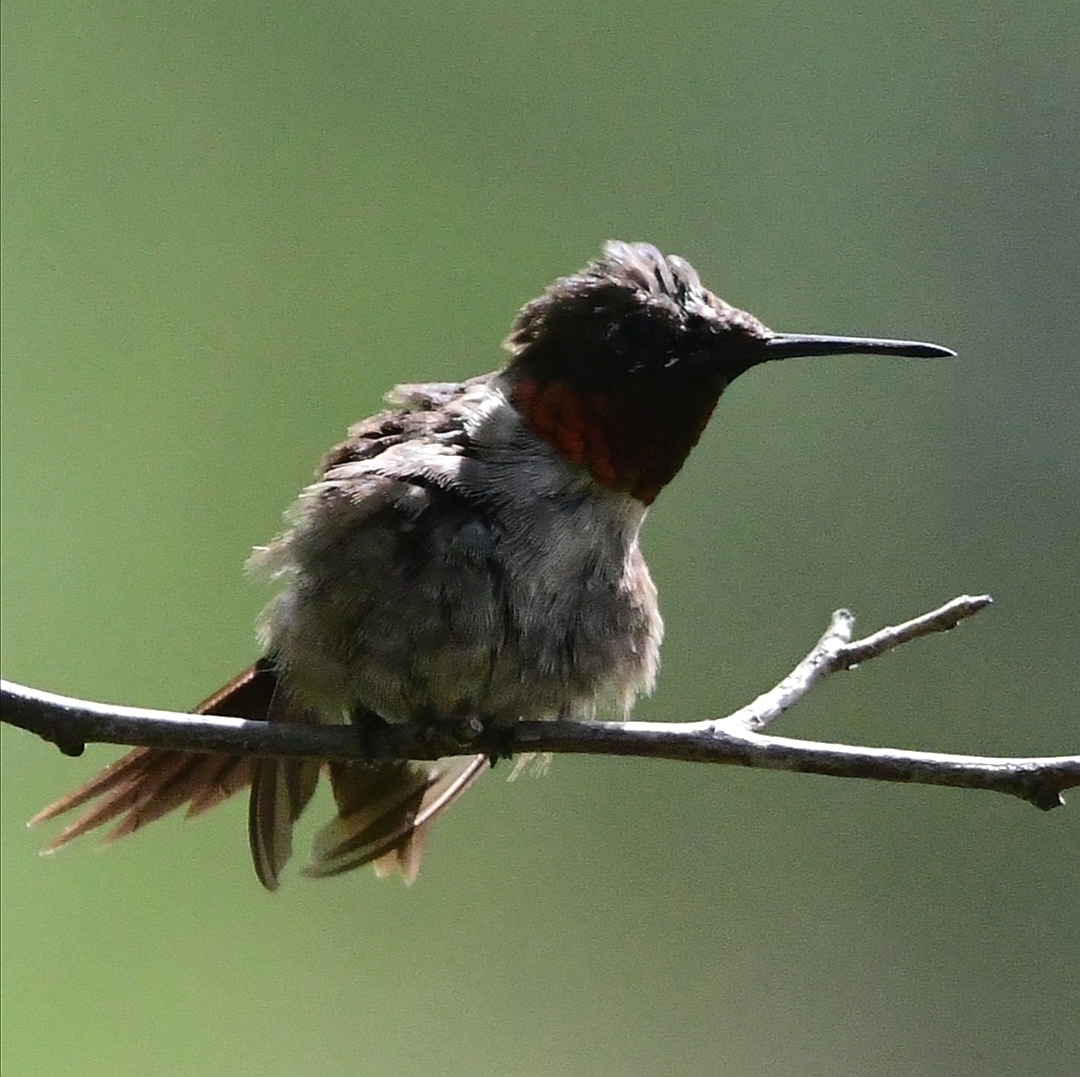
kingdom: Animalia
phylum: Chordata
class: Aves
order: Apodiformes
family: Trochilidae
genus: Archilochus
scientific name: Archilochus colubris
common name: Ruby-throated hummingbird
